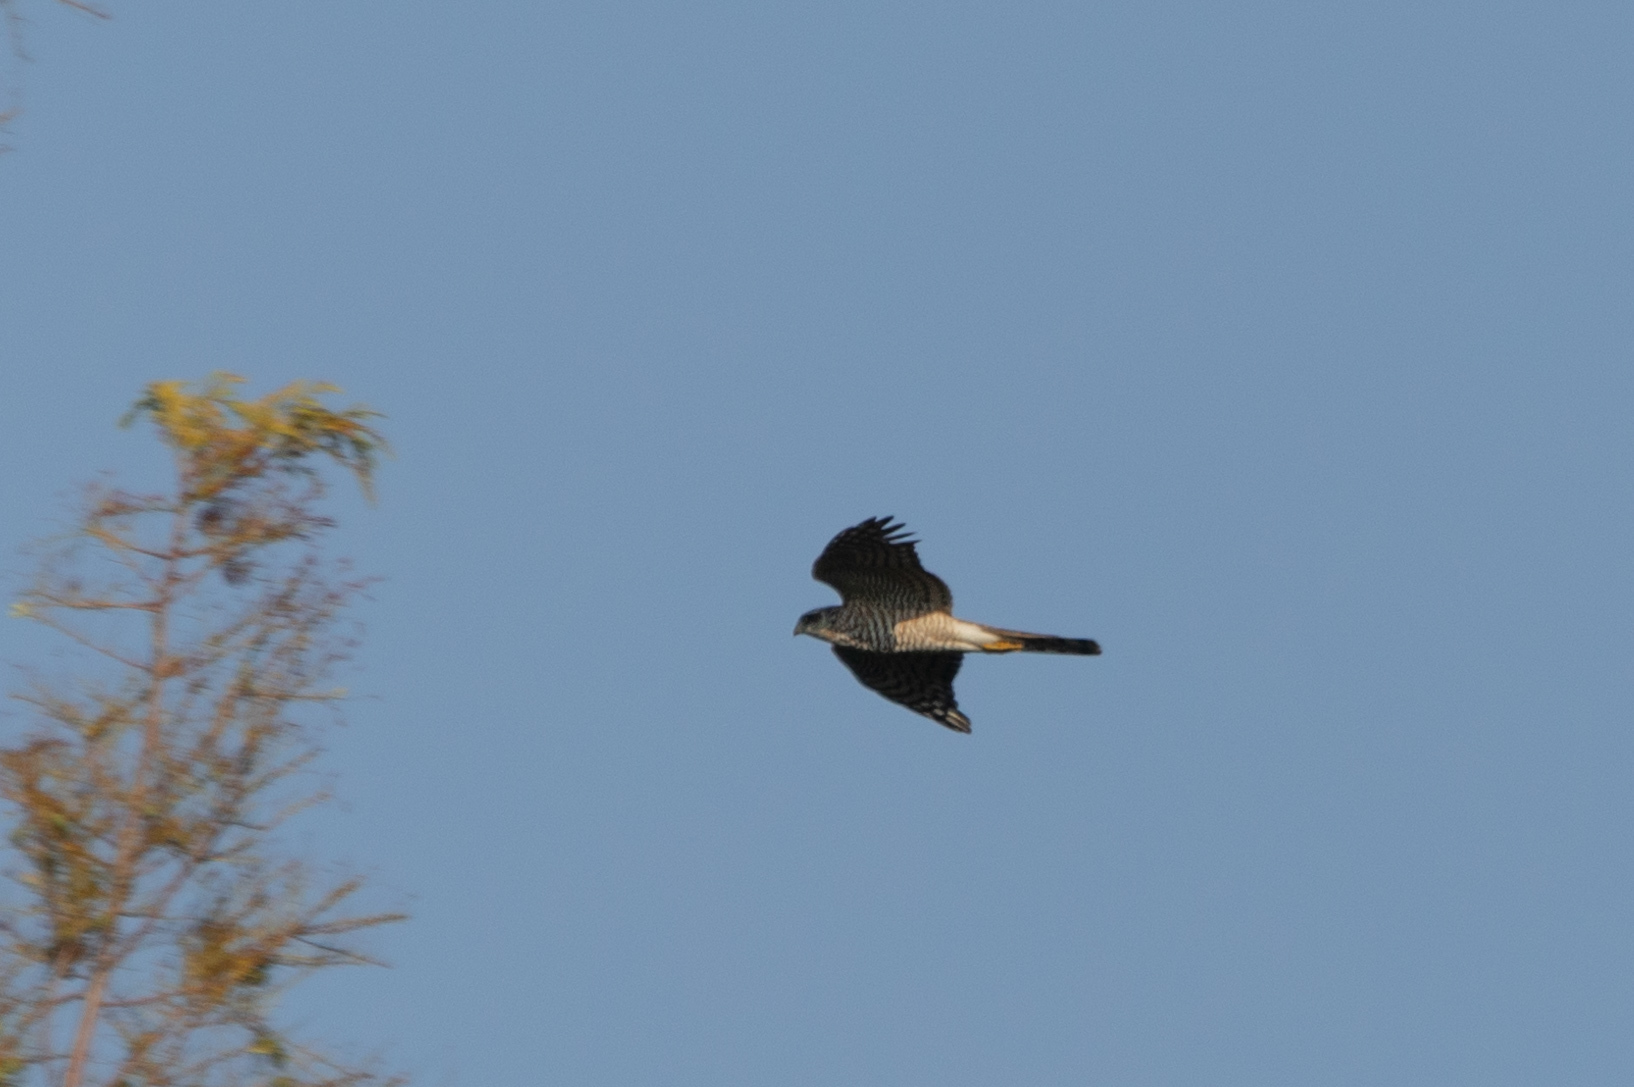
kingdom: Animalia
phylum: Chordata
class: Aves
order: Accipitriformes
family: Accipitridae
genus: Accipiter
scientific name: Accipiter nisus
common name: Eurasian sparrowhawk
